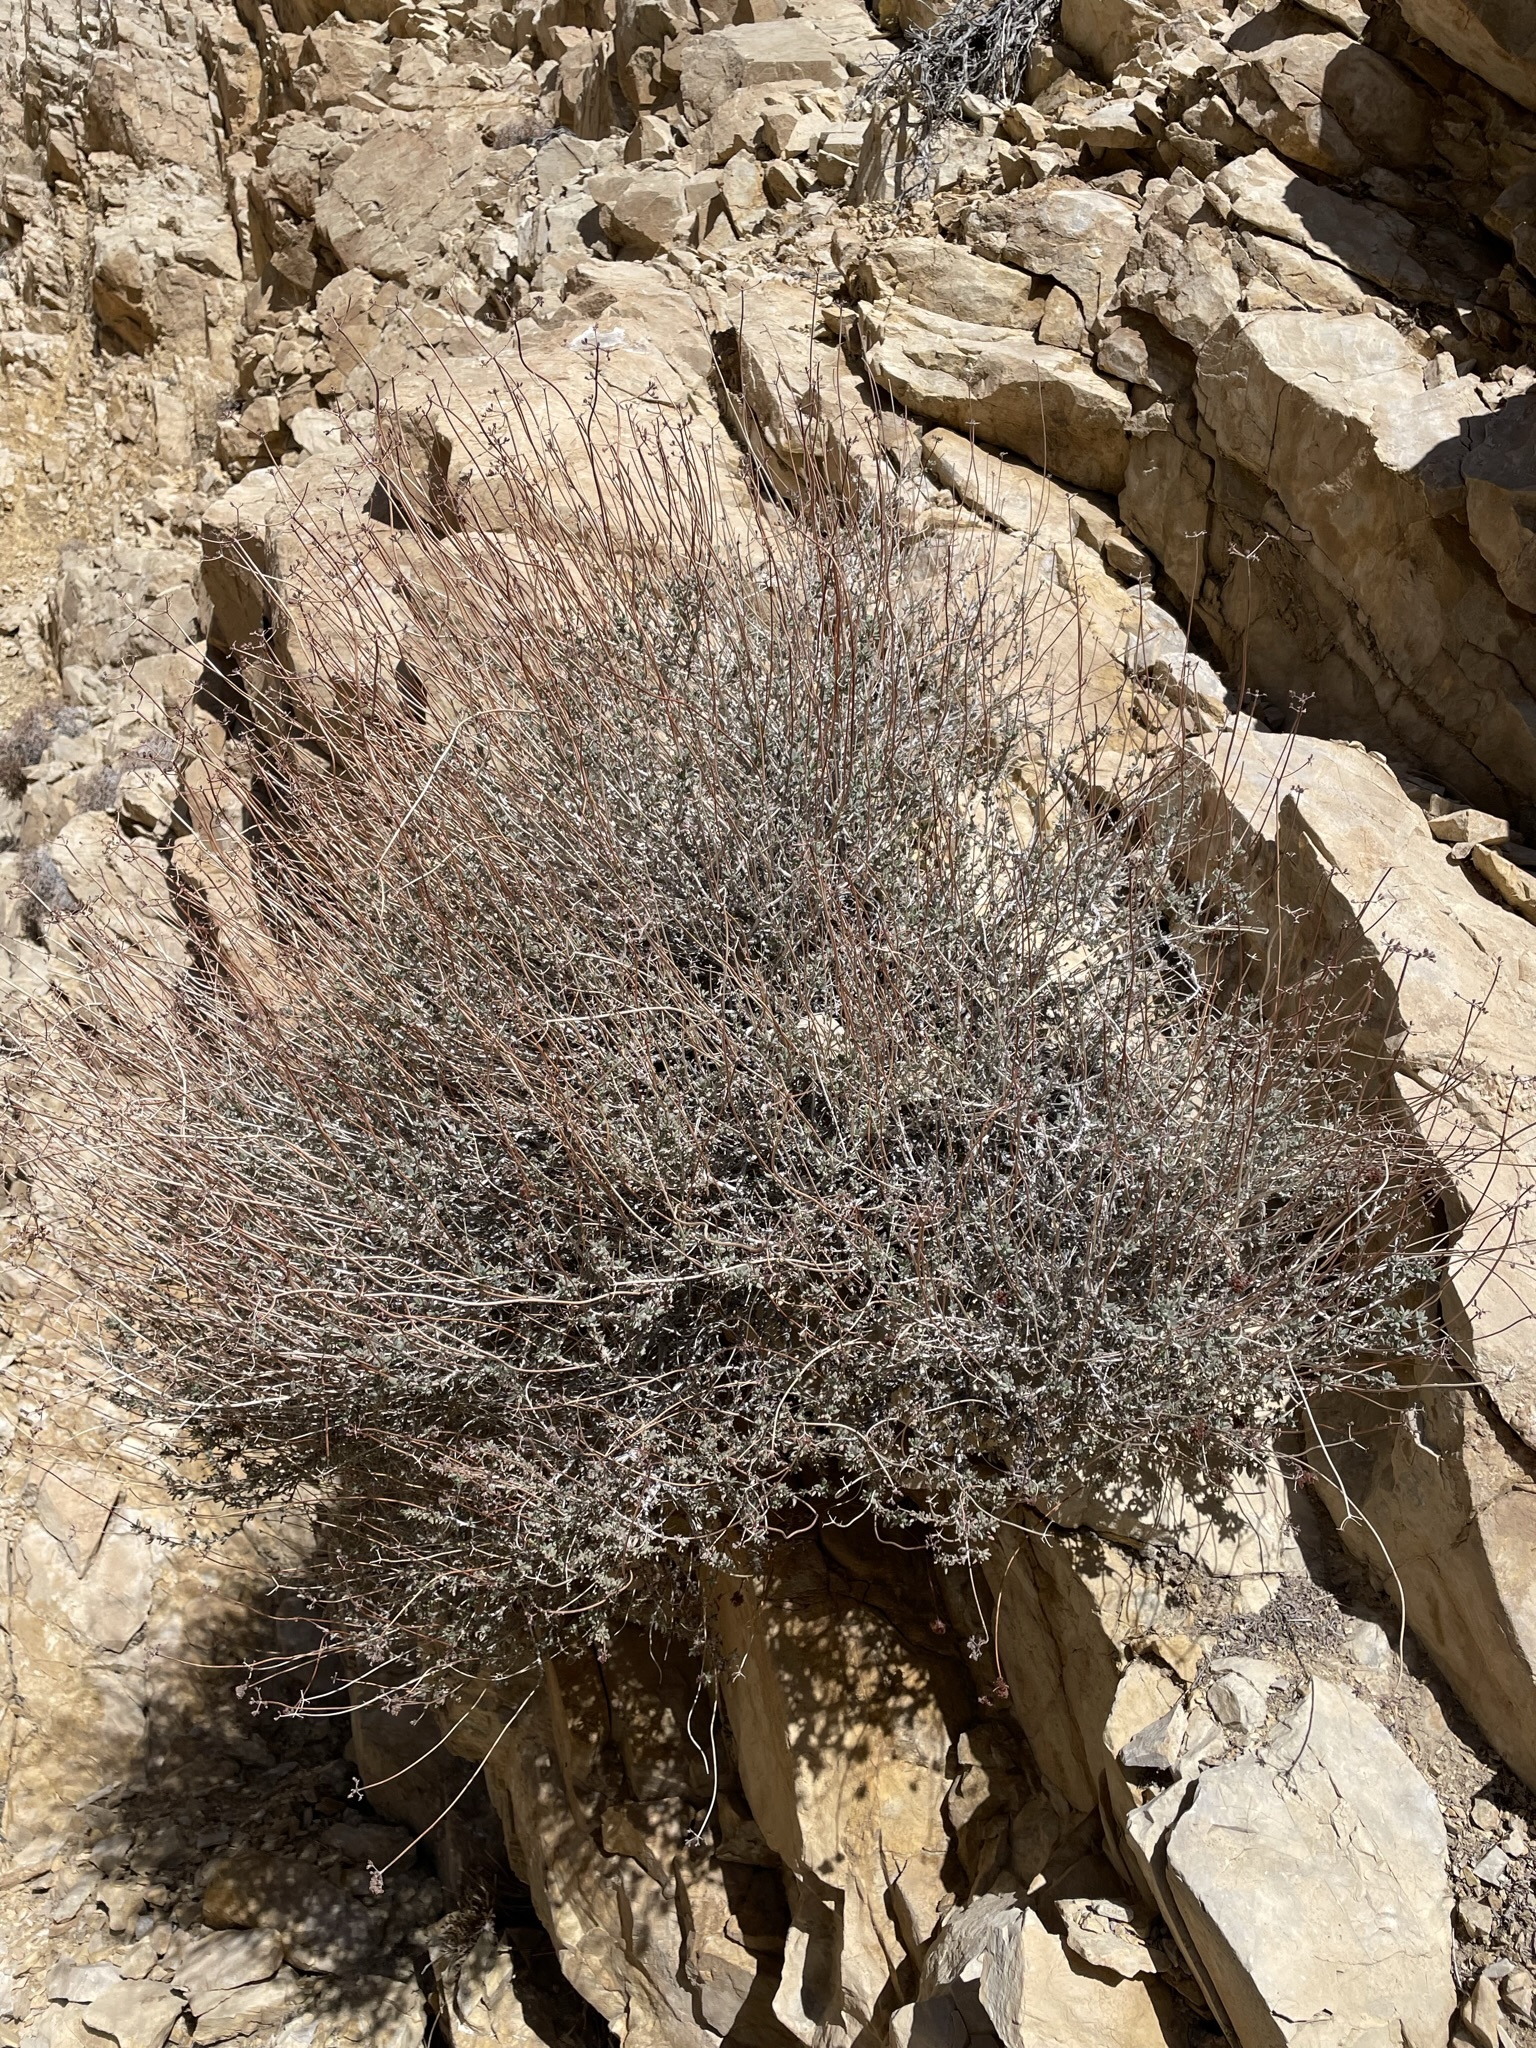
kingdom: Plantae
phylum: Tracheophyta
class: Magnoliopsida
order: Caryophyllales
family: Polygonaceae
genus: Eriogonum
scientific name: Eriogonum fasciculatum
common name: California wild buckwheat
